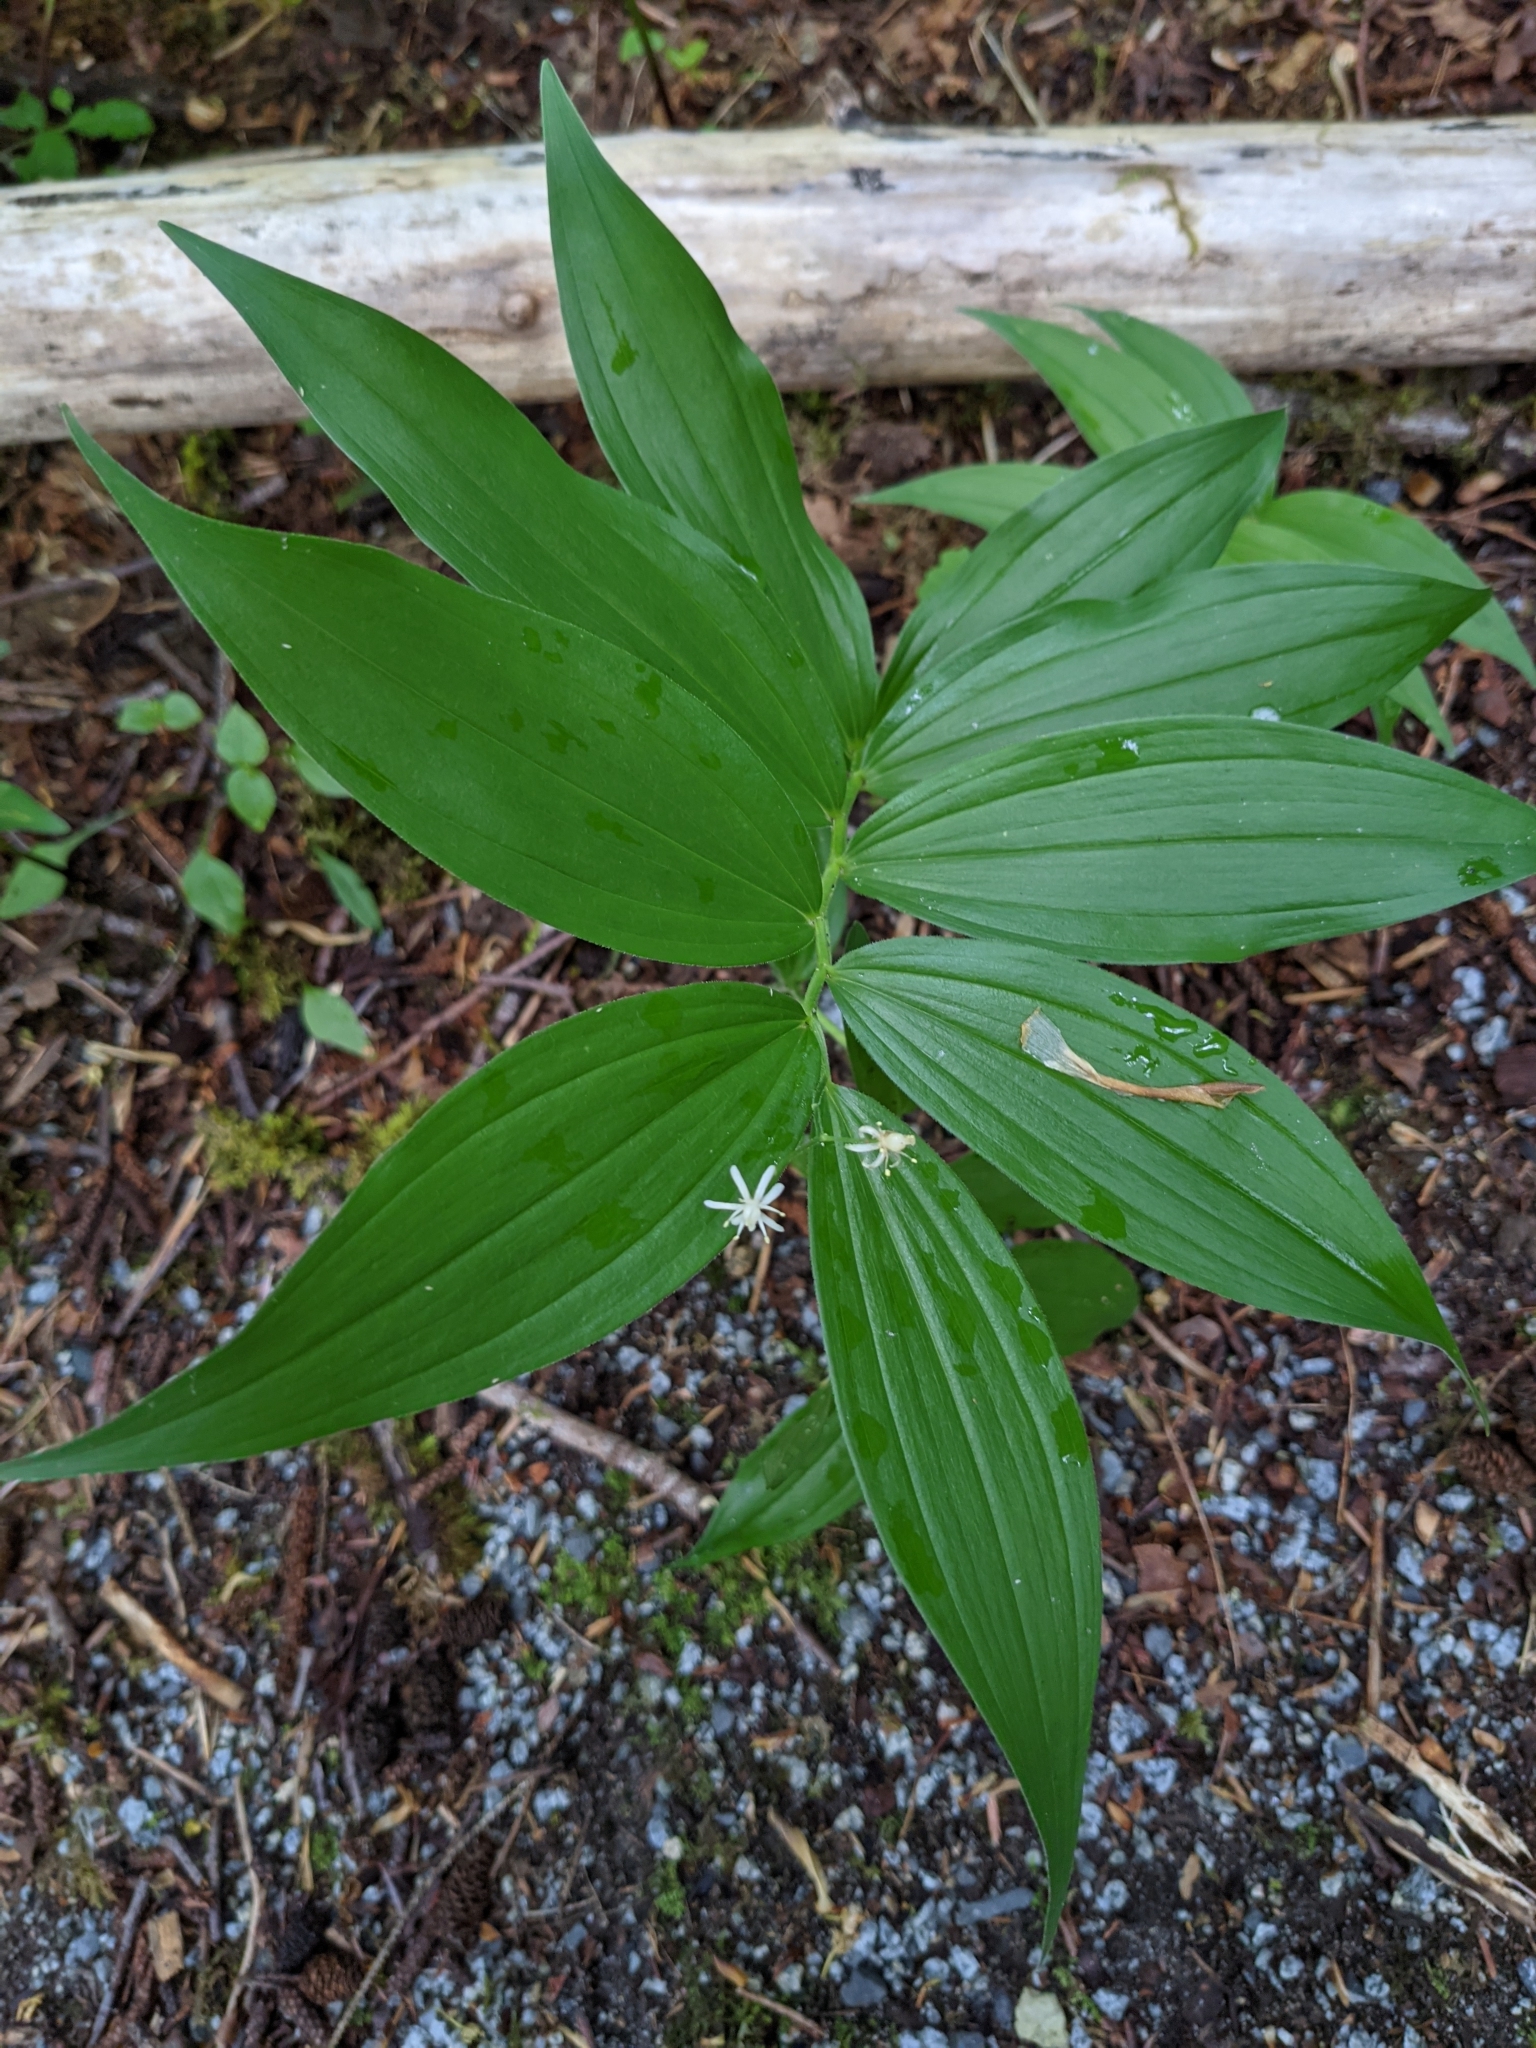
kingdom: Plantae
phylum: Tracheophyta
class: Liliopsida
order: Asparagales
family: Asparagaceae
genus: Maianthemum
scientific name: Maianthemum stellatum
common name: Little false solomon's seal
